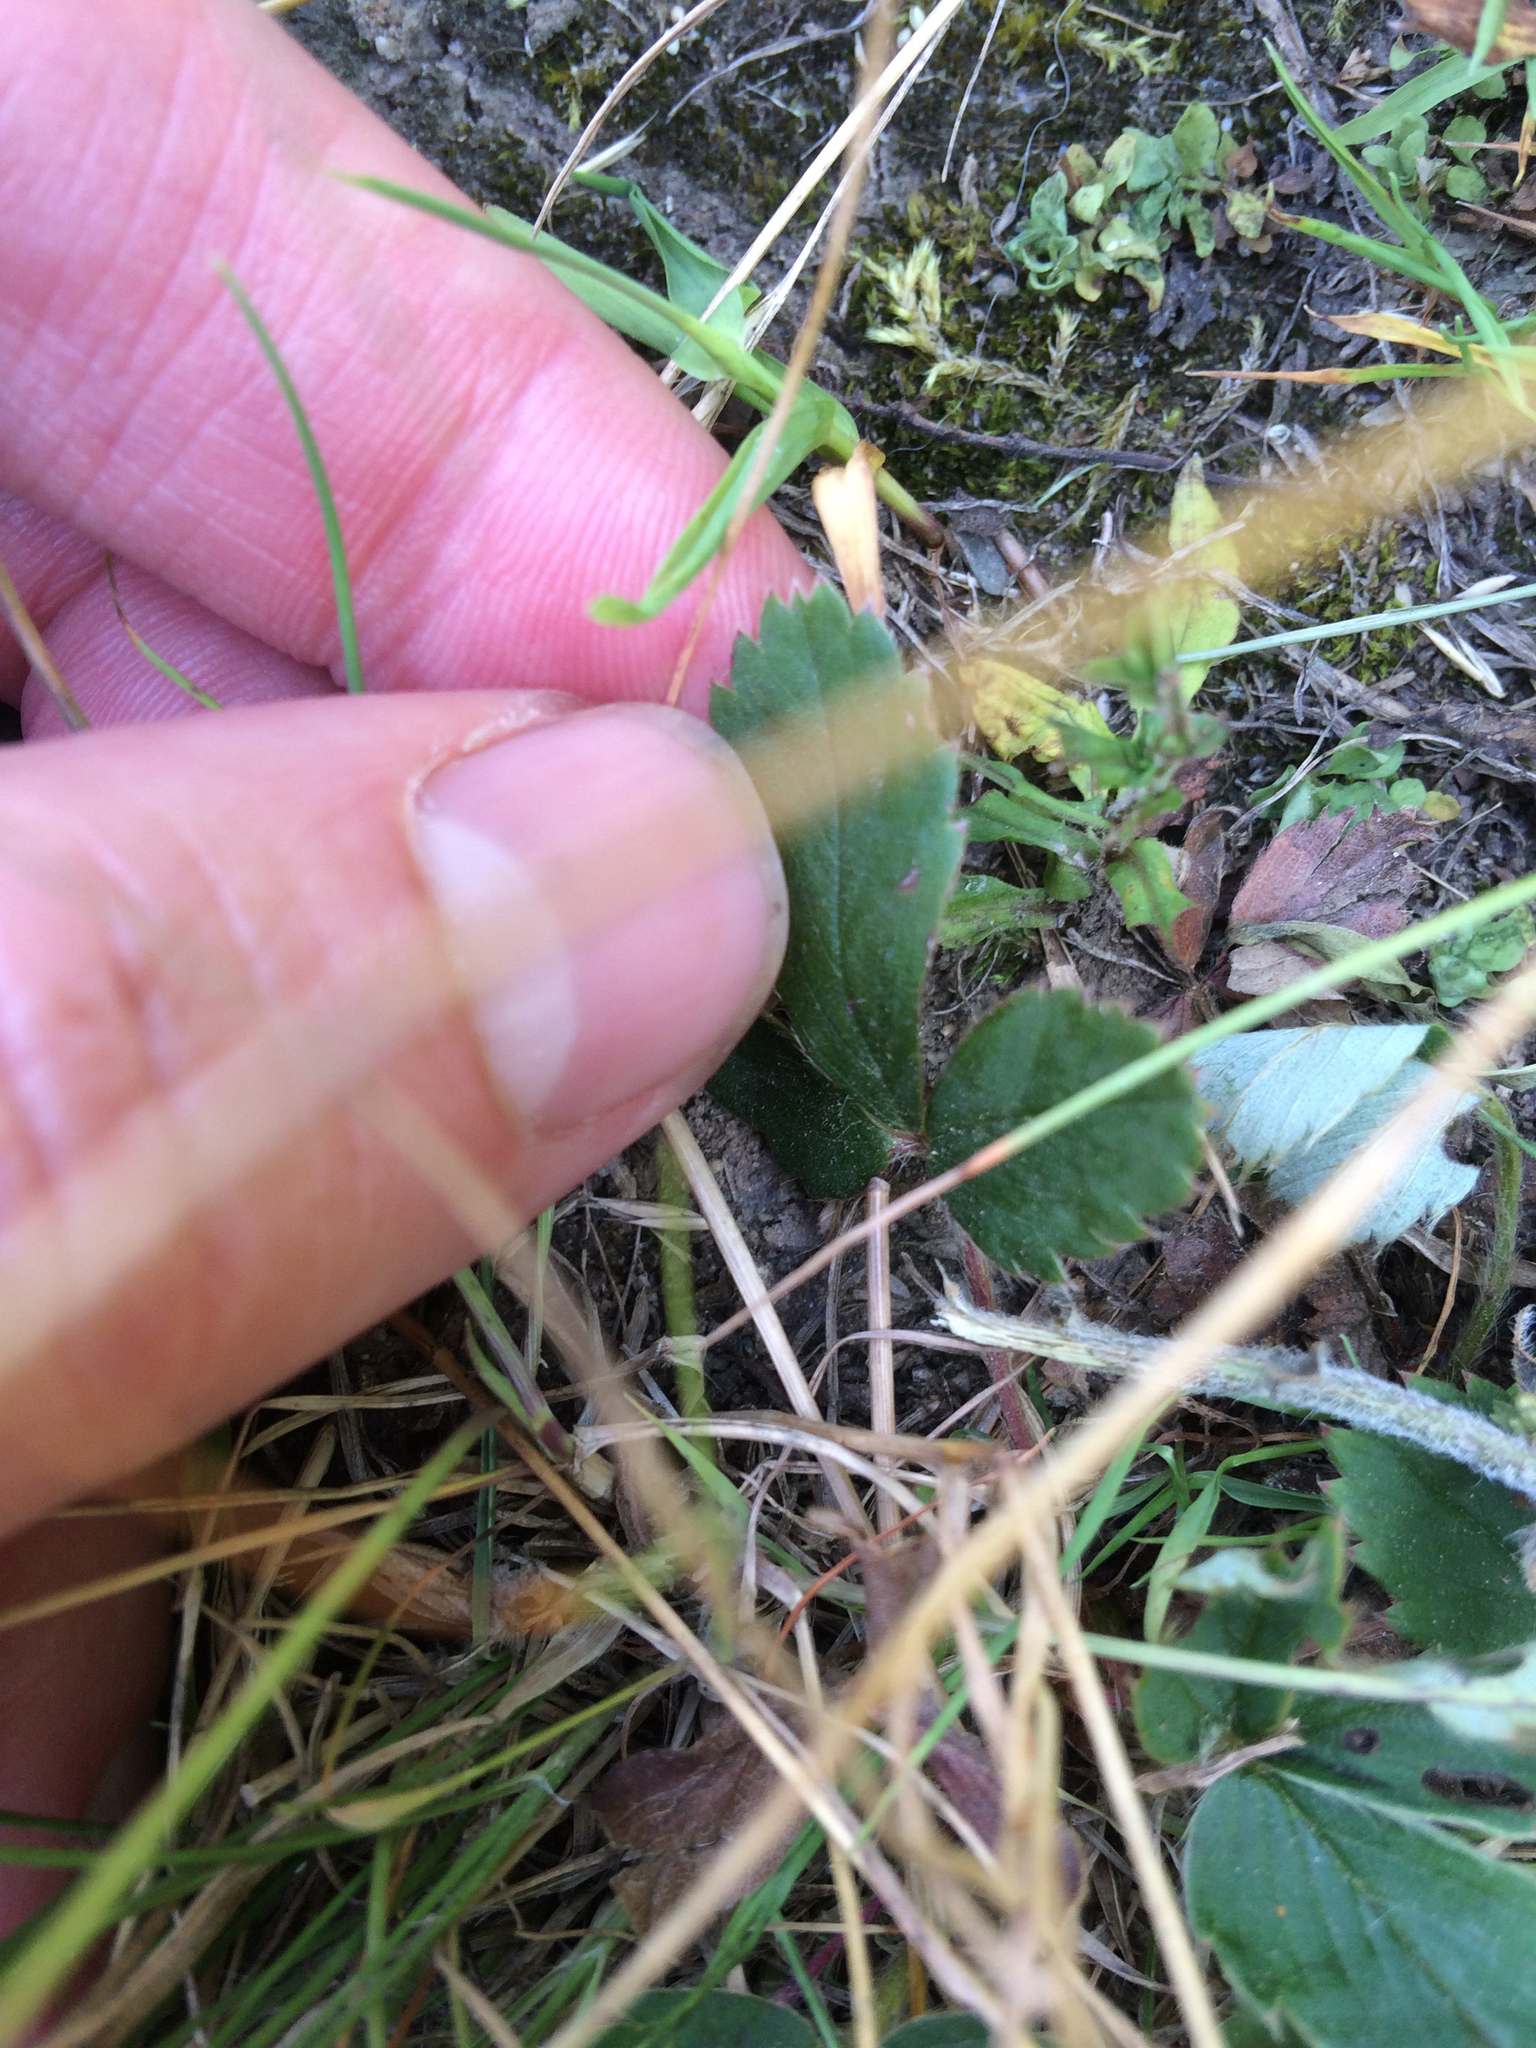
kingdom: Plantae
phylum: Tracheophyta
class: Magnoliopsida
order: Rosales
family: Rosaceae
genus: Fragaria
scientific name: Fragaria virginiana
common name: Thickleaved wild strawberry
